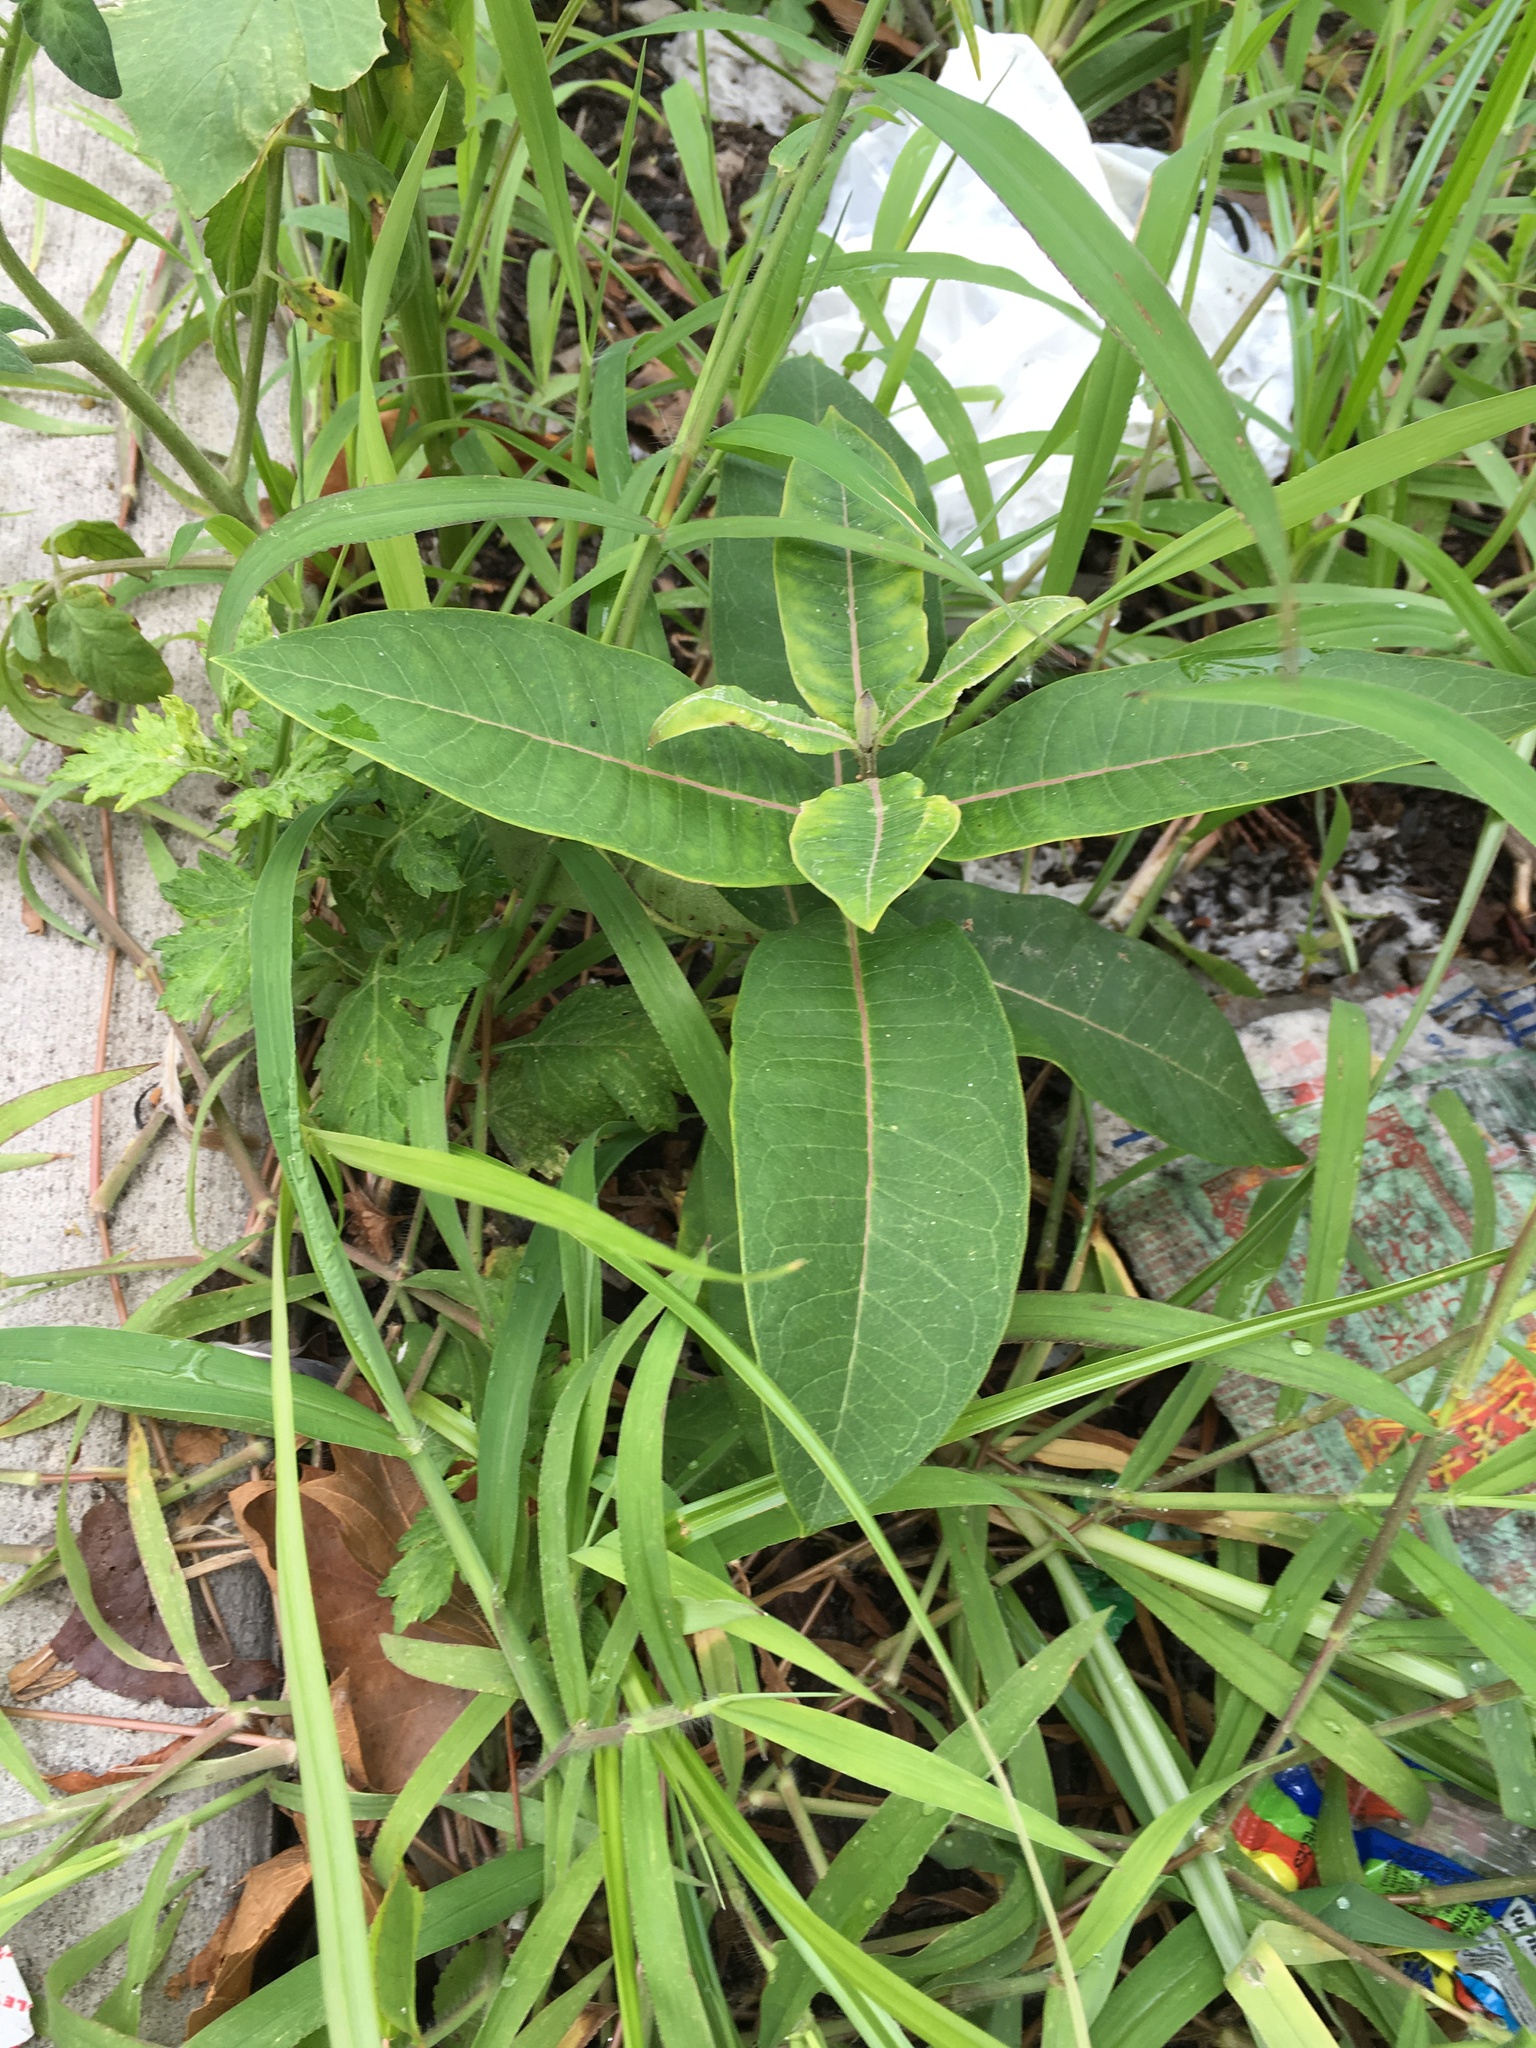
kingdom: Plantae
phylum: Tracheophyta
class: Magnoliopsida
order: Gentianales
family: Apocynaceae
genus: Asclepias
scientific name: Asclepias syriaca
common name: Common milkweed
